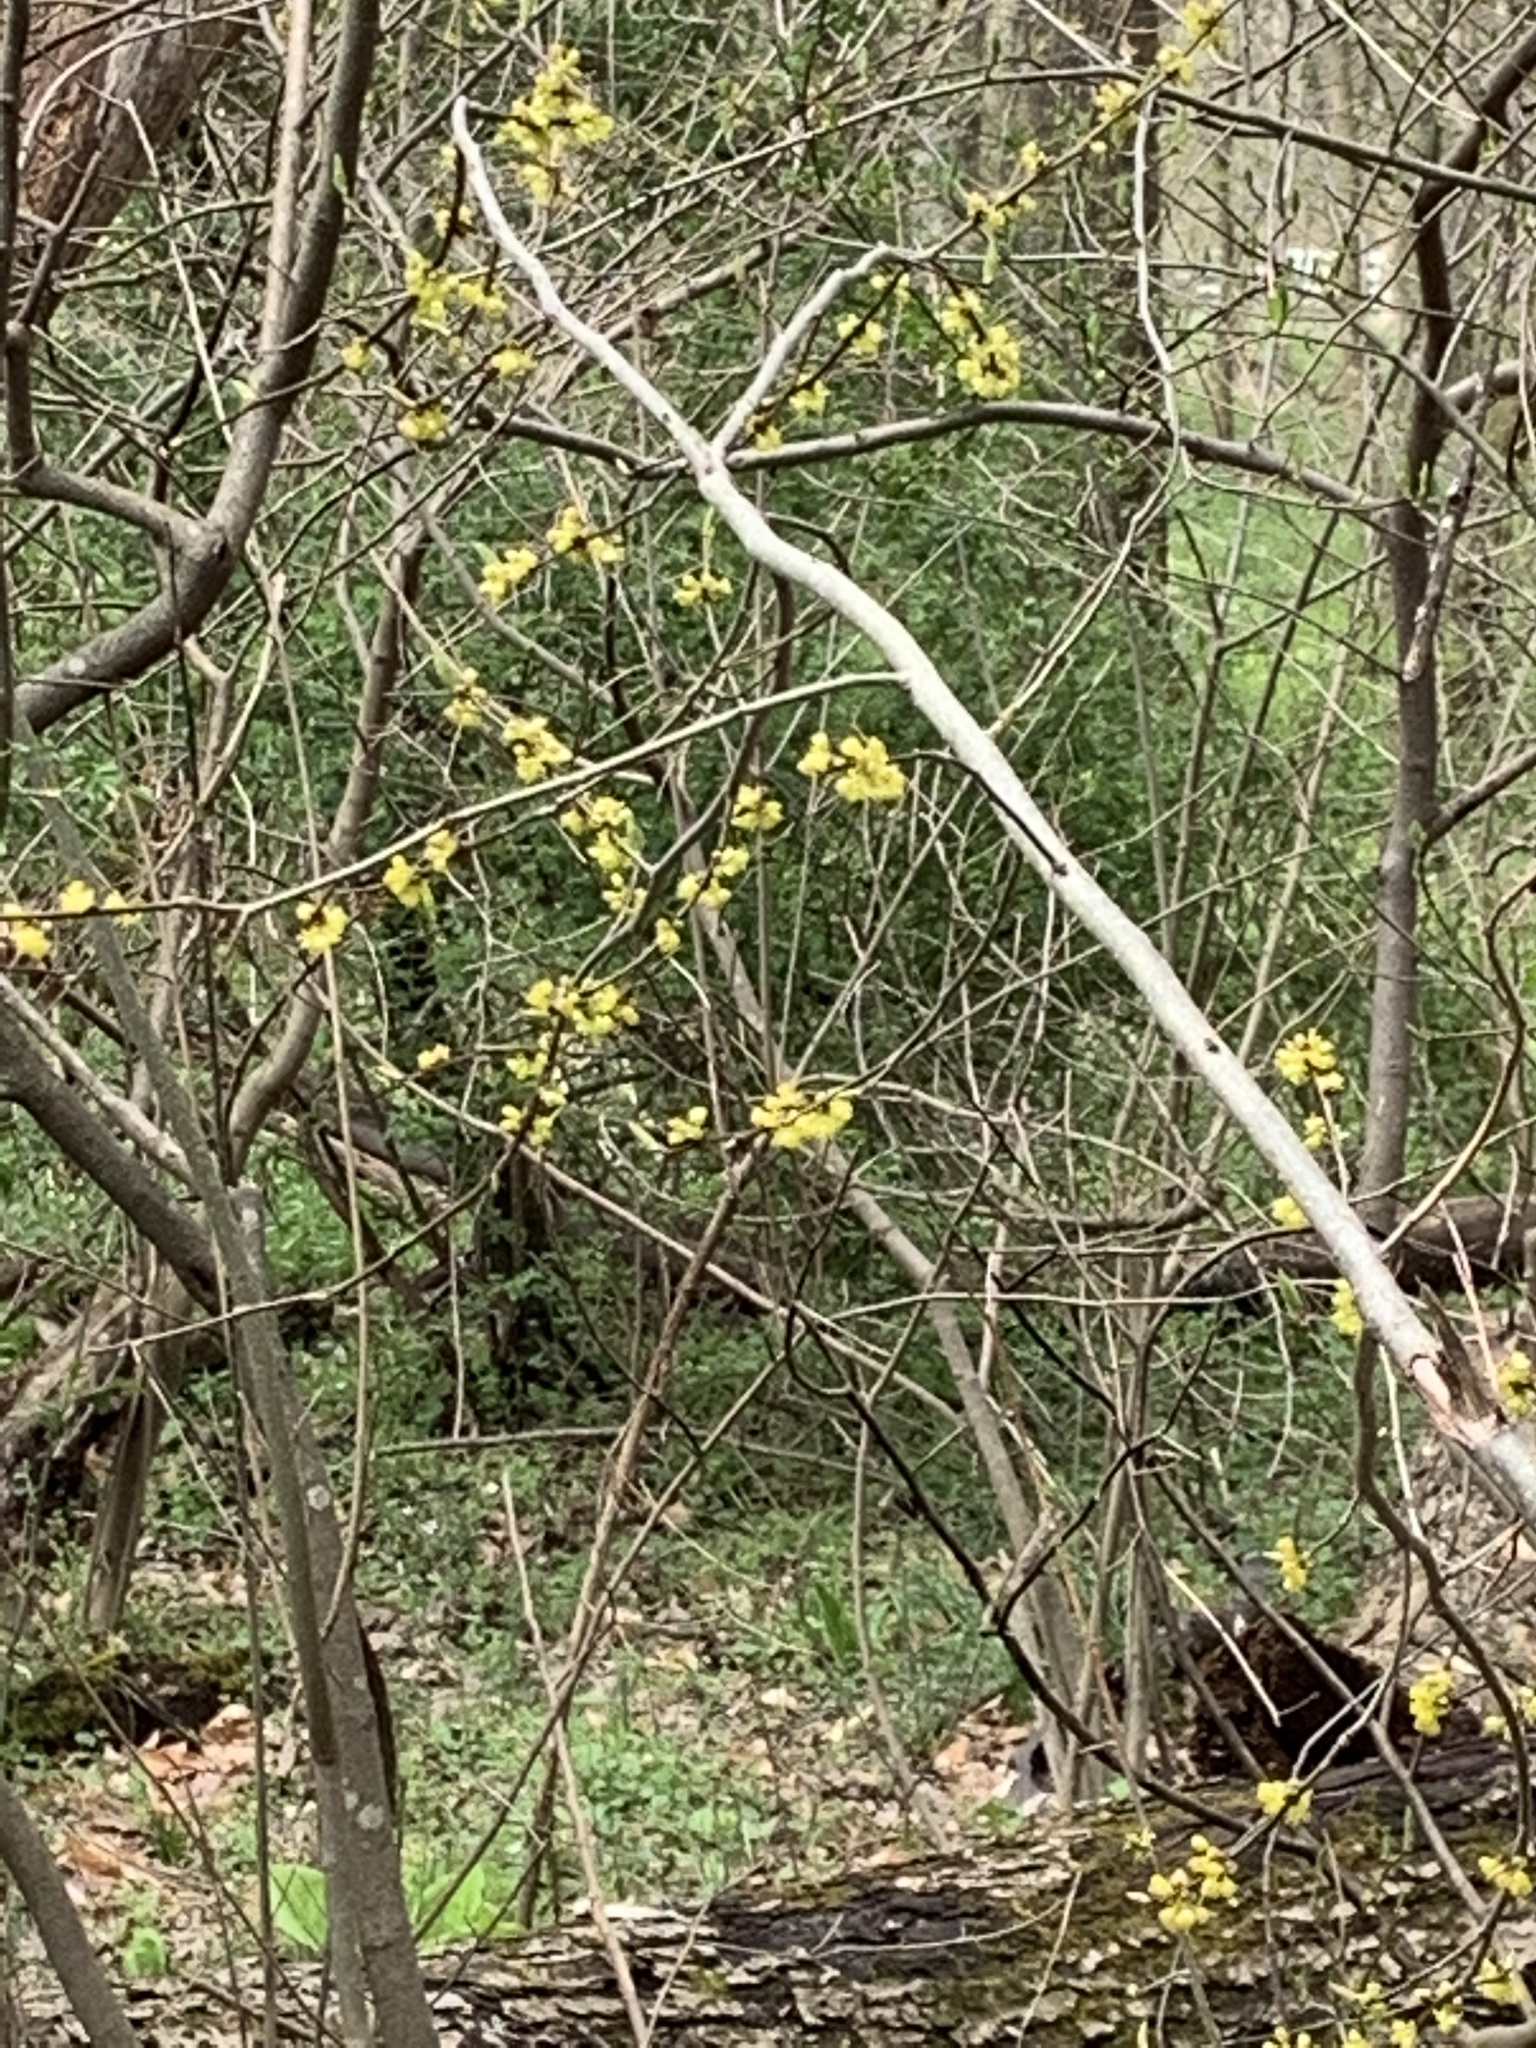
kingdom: Plantae
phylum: Tracheophyta
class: Magnoliopsida
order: Laurales
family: Lauraceae
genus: Lindera
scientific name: Lindera benzoin
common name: Spicebush
